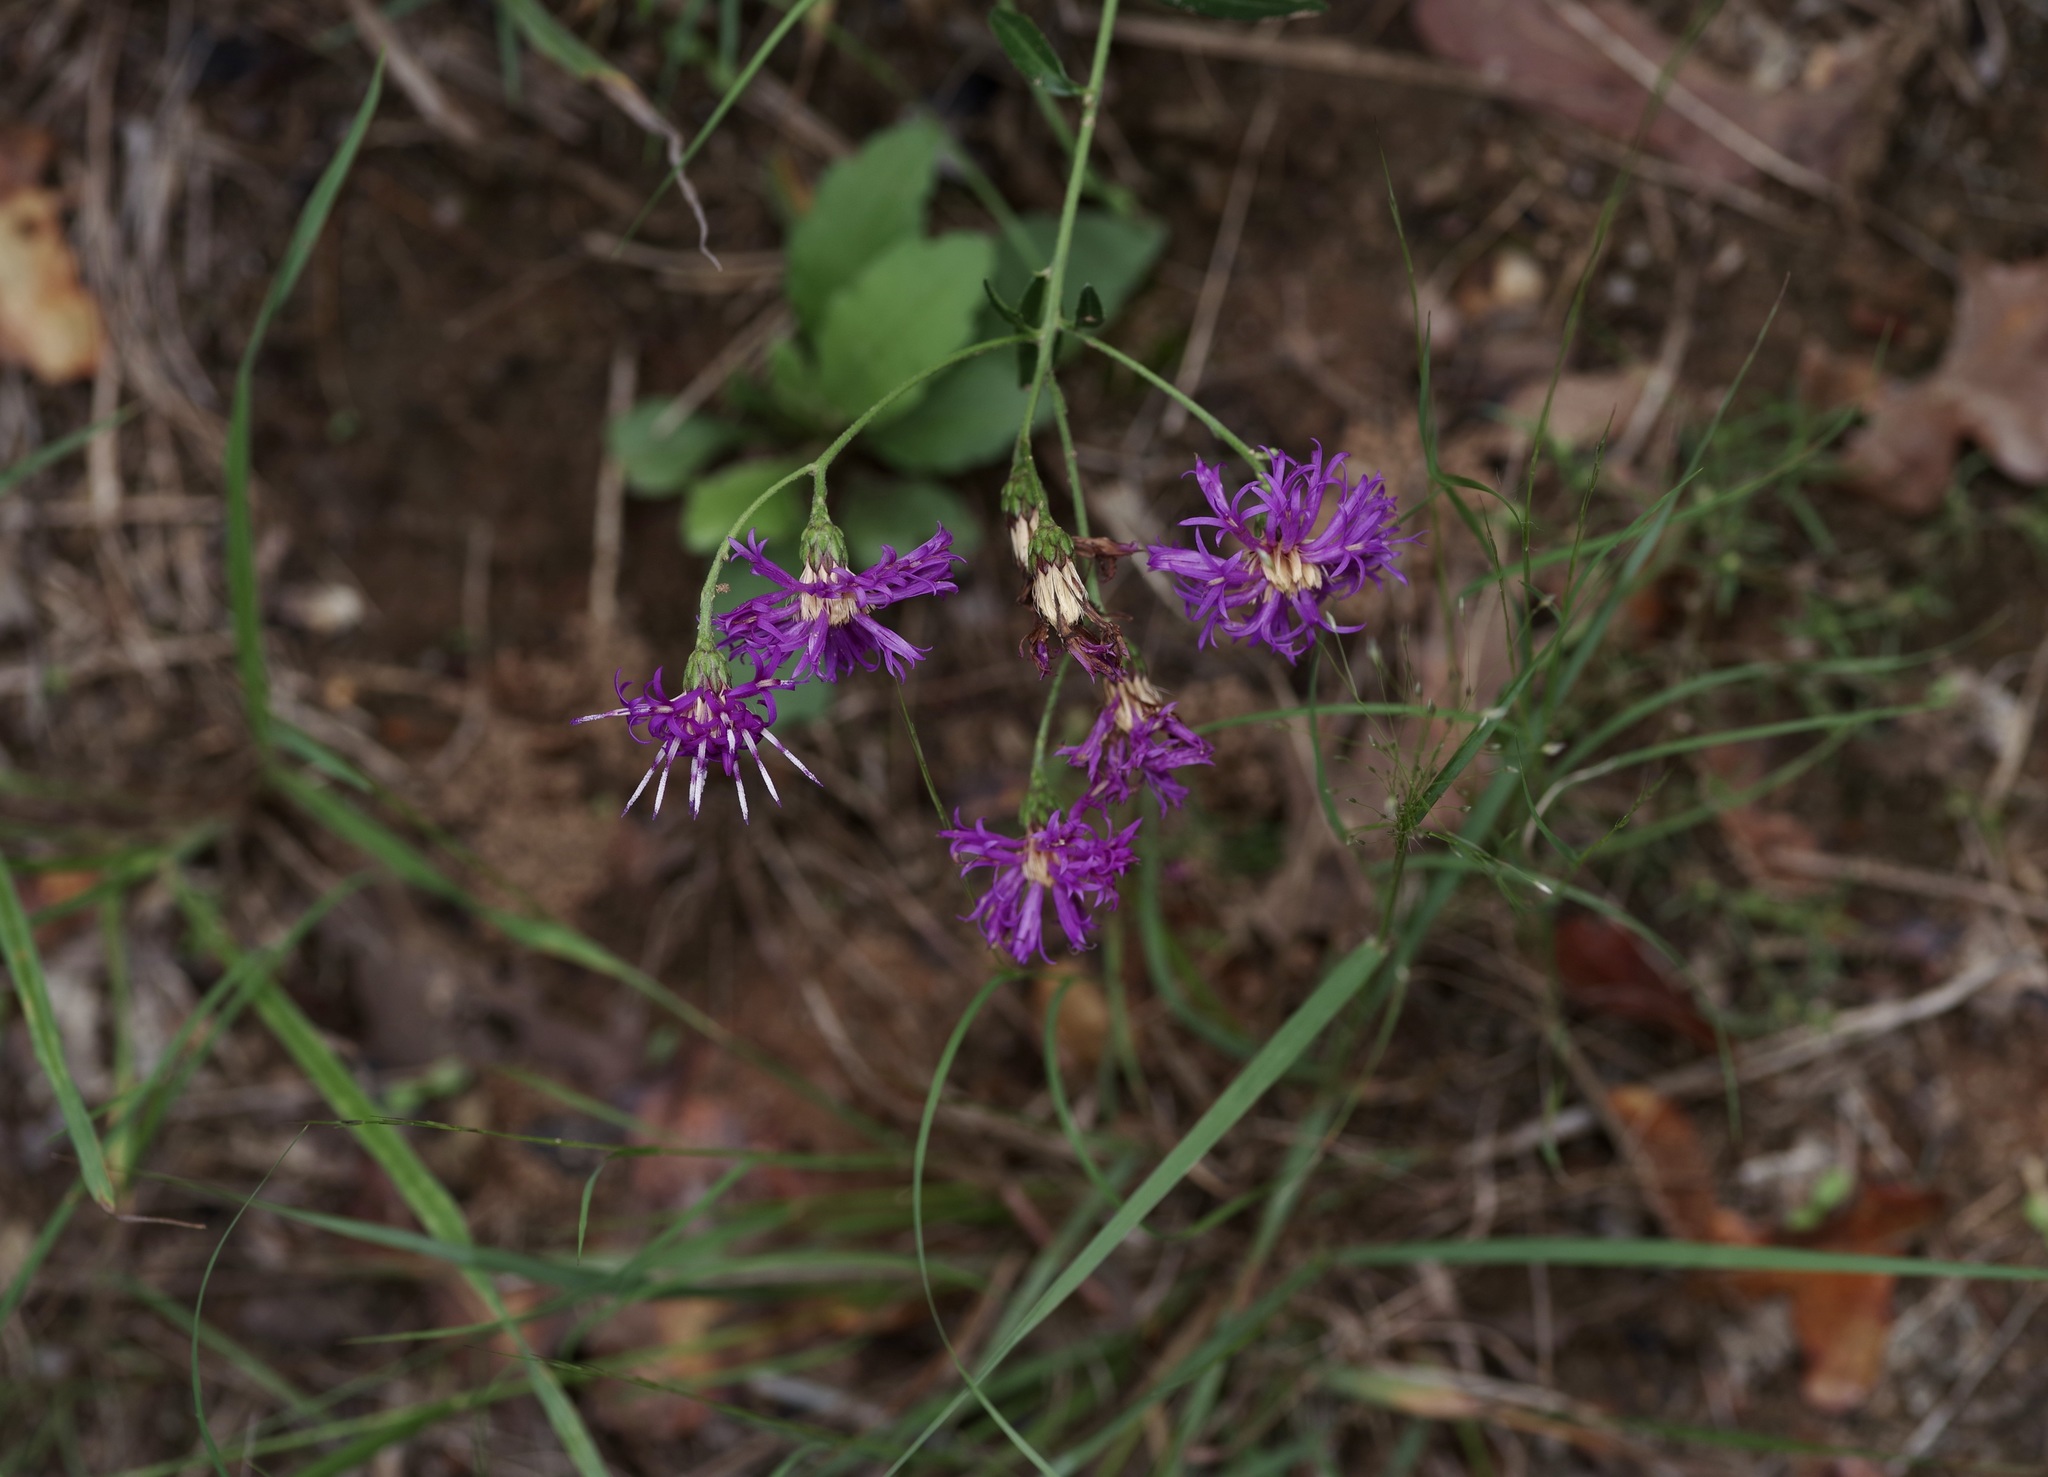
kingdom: Plantae
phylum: Tracheophyta
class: Magnoliopsida
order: Asterales
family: Asteraceae
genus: Vernonia
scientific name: Vernonia texana
